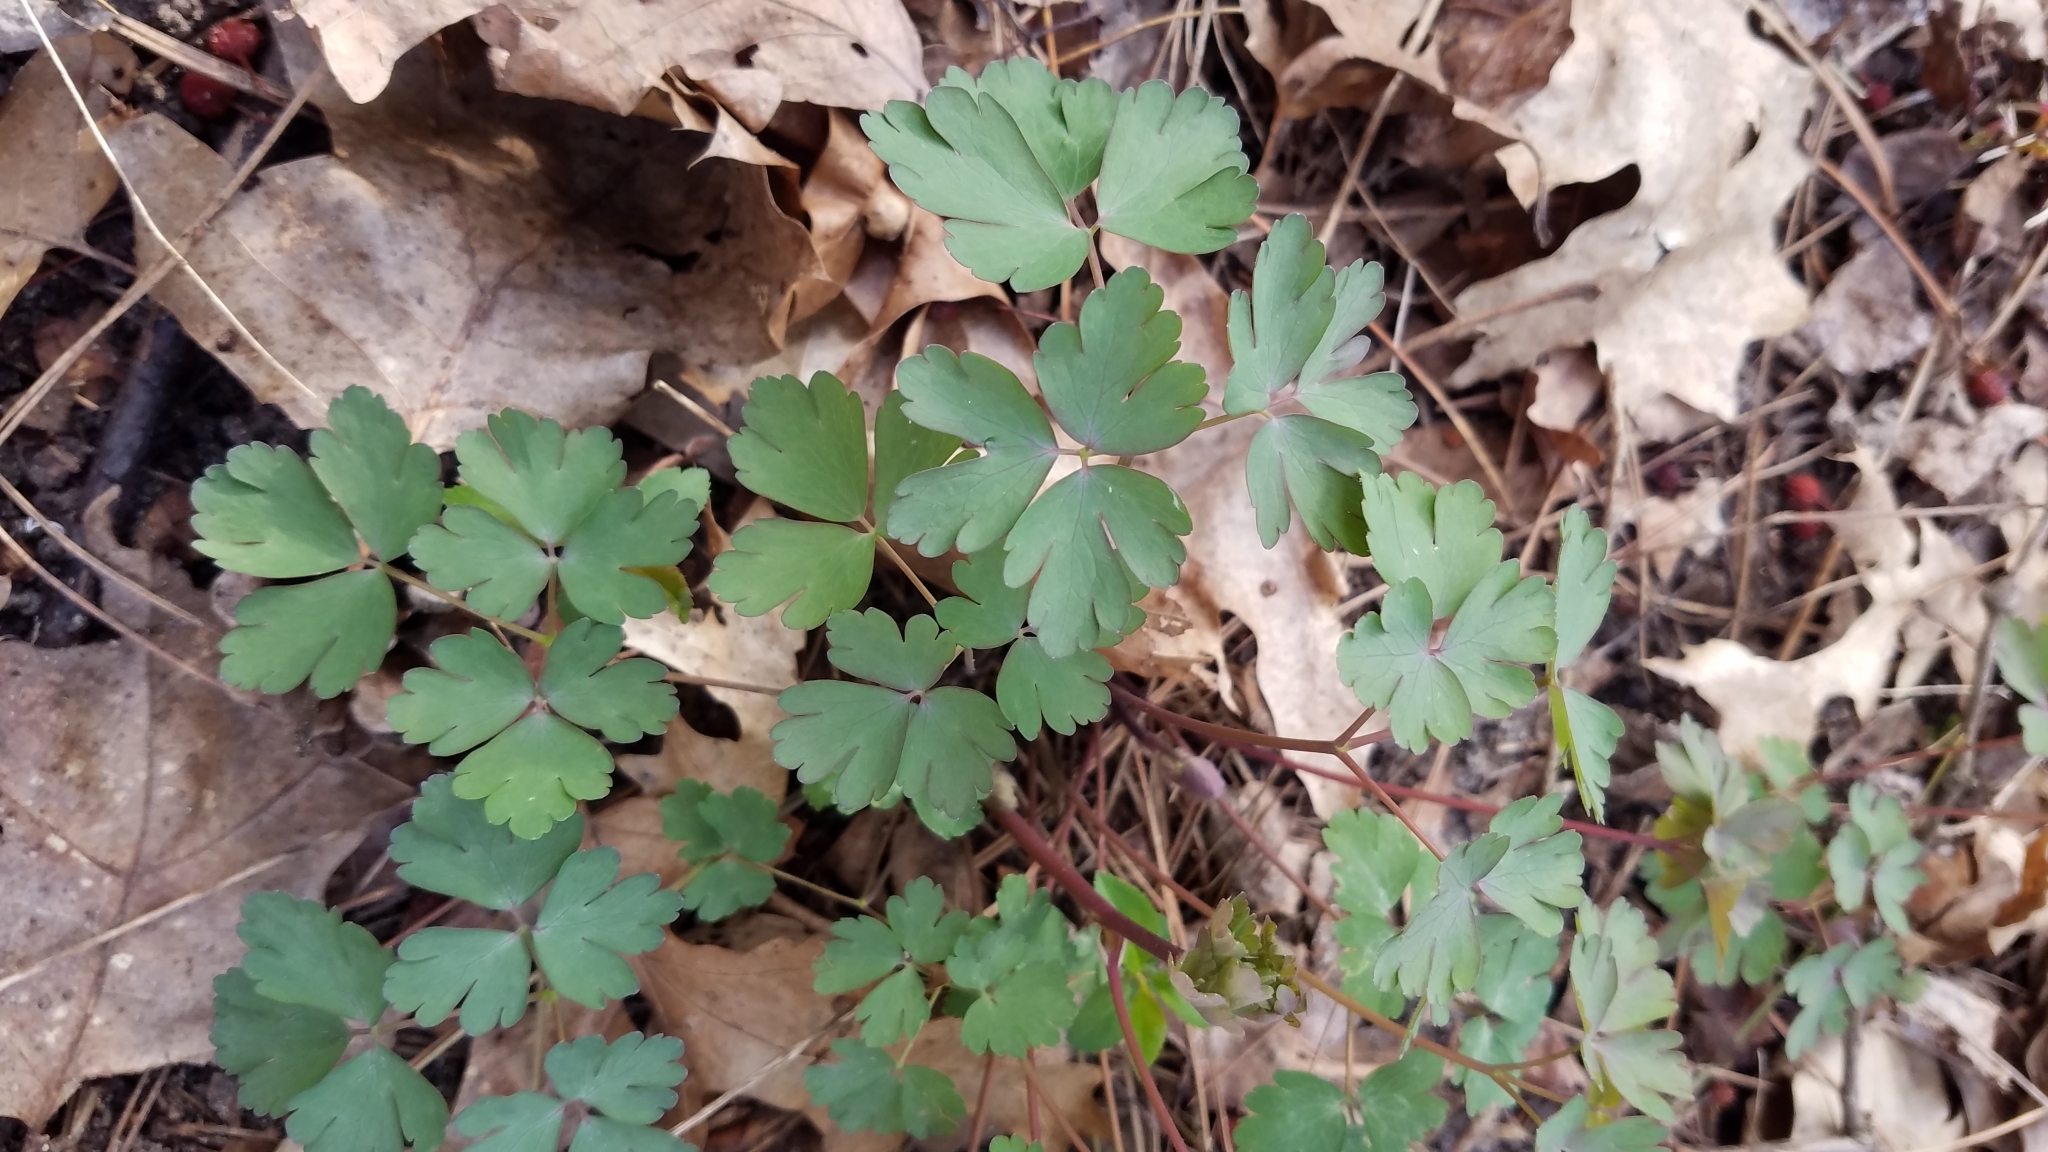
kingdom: Plantae
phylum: Tracheophyta
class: Magnoliopsida
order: Ranunculales
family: Ranunculaceae
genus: Aquilegia
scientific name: Aquilegia canadensis
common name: American columbine
